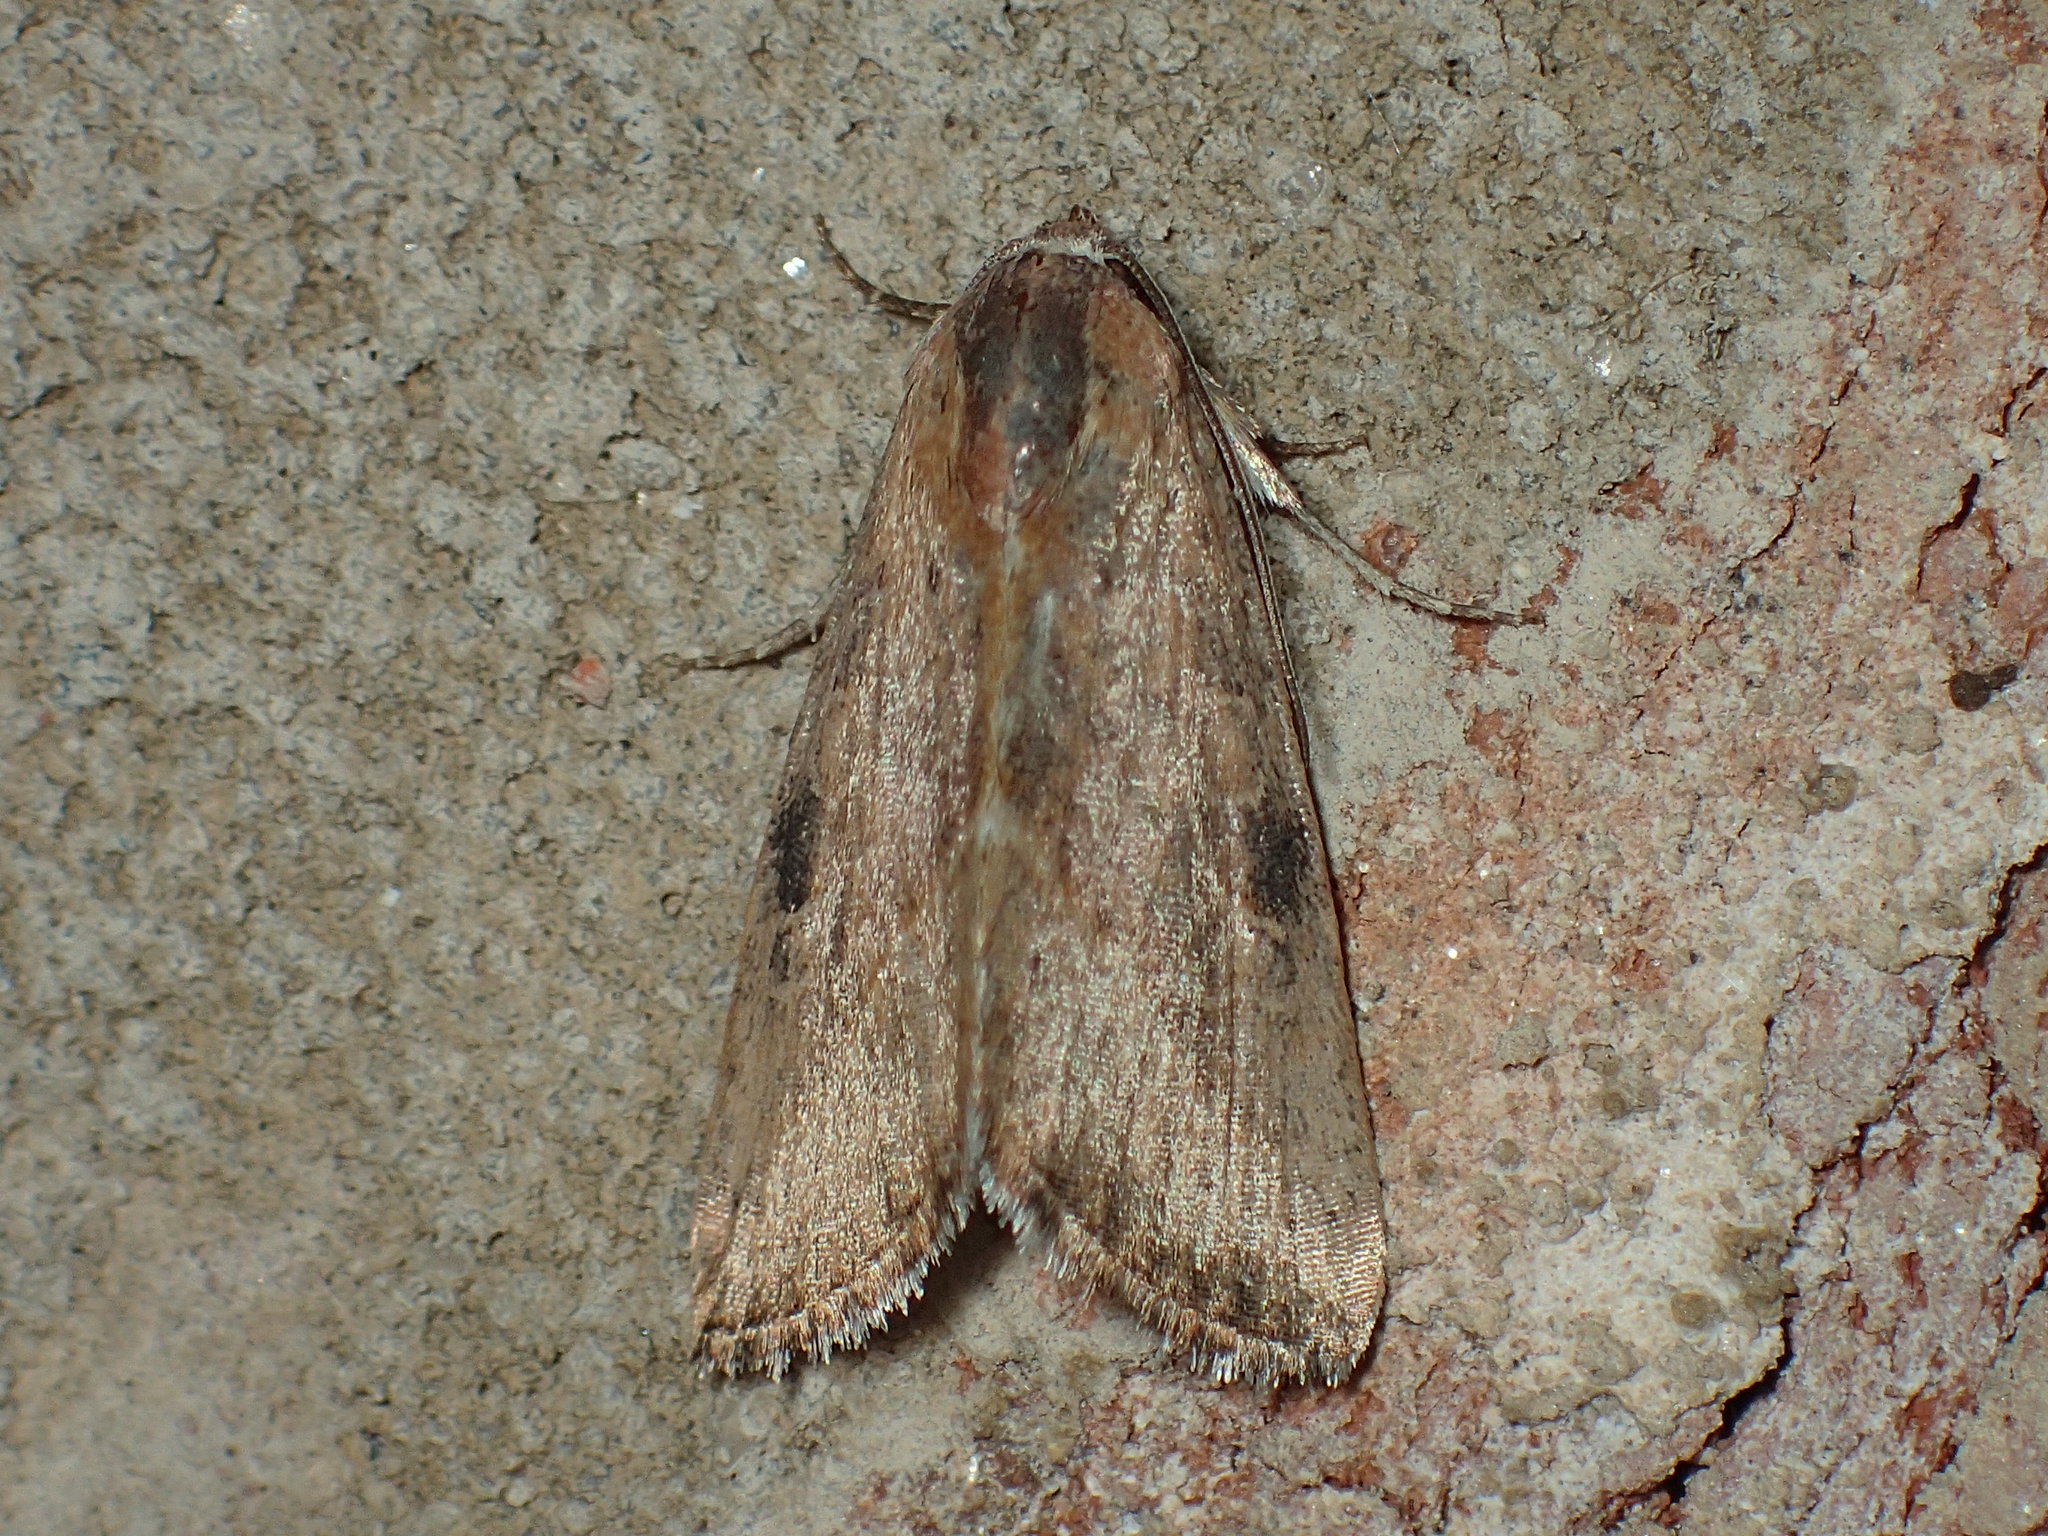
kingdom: Animalia
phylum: Arthropoda
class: Insecta
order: Lepidoptera
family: Noctuidae
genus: Galgula
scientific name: Galgula partita
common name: Wedgeling
